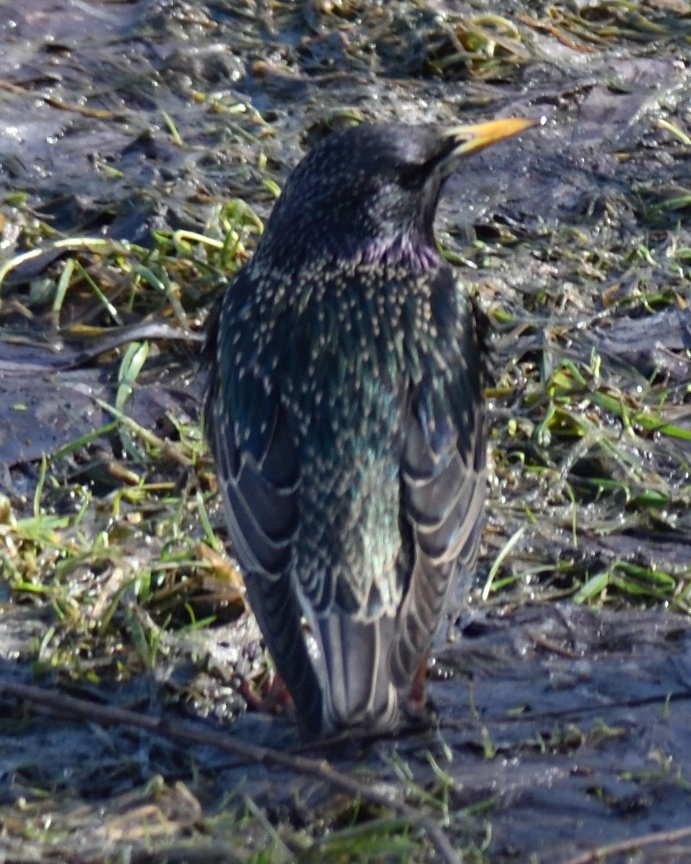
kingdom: Animalia
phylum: Chordata
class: Aves
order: Passeriformes
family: Sturnidae
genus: Sturnus
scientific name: Sturnus vulgaris
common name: Common starling
